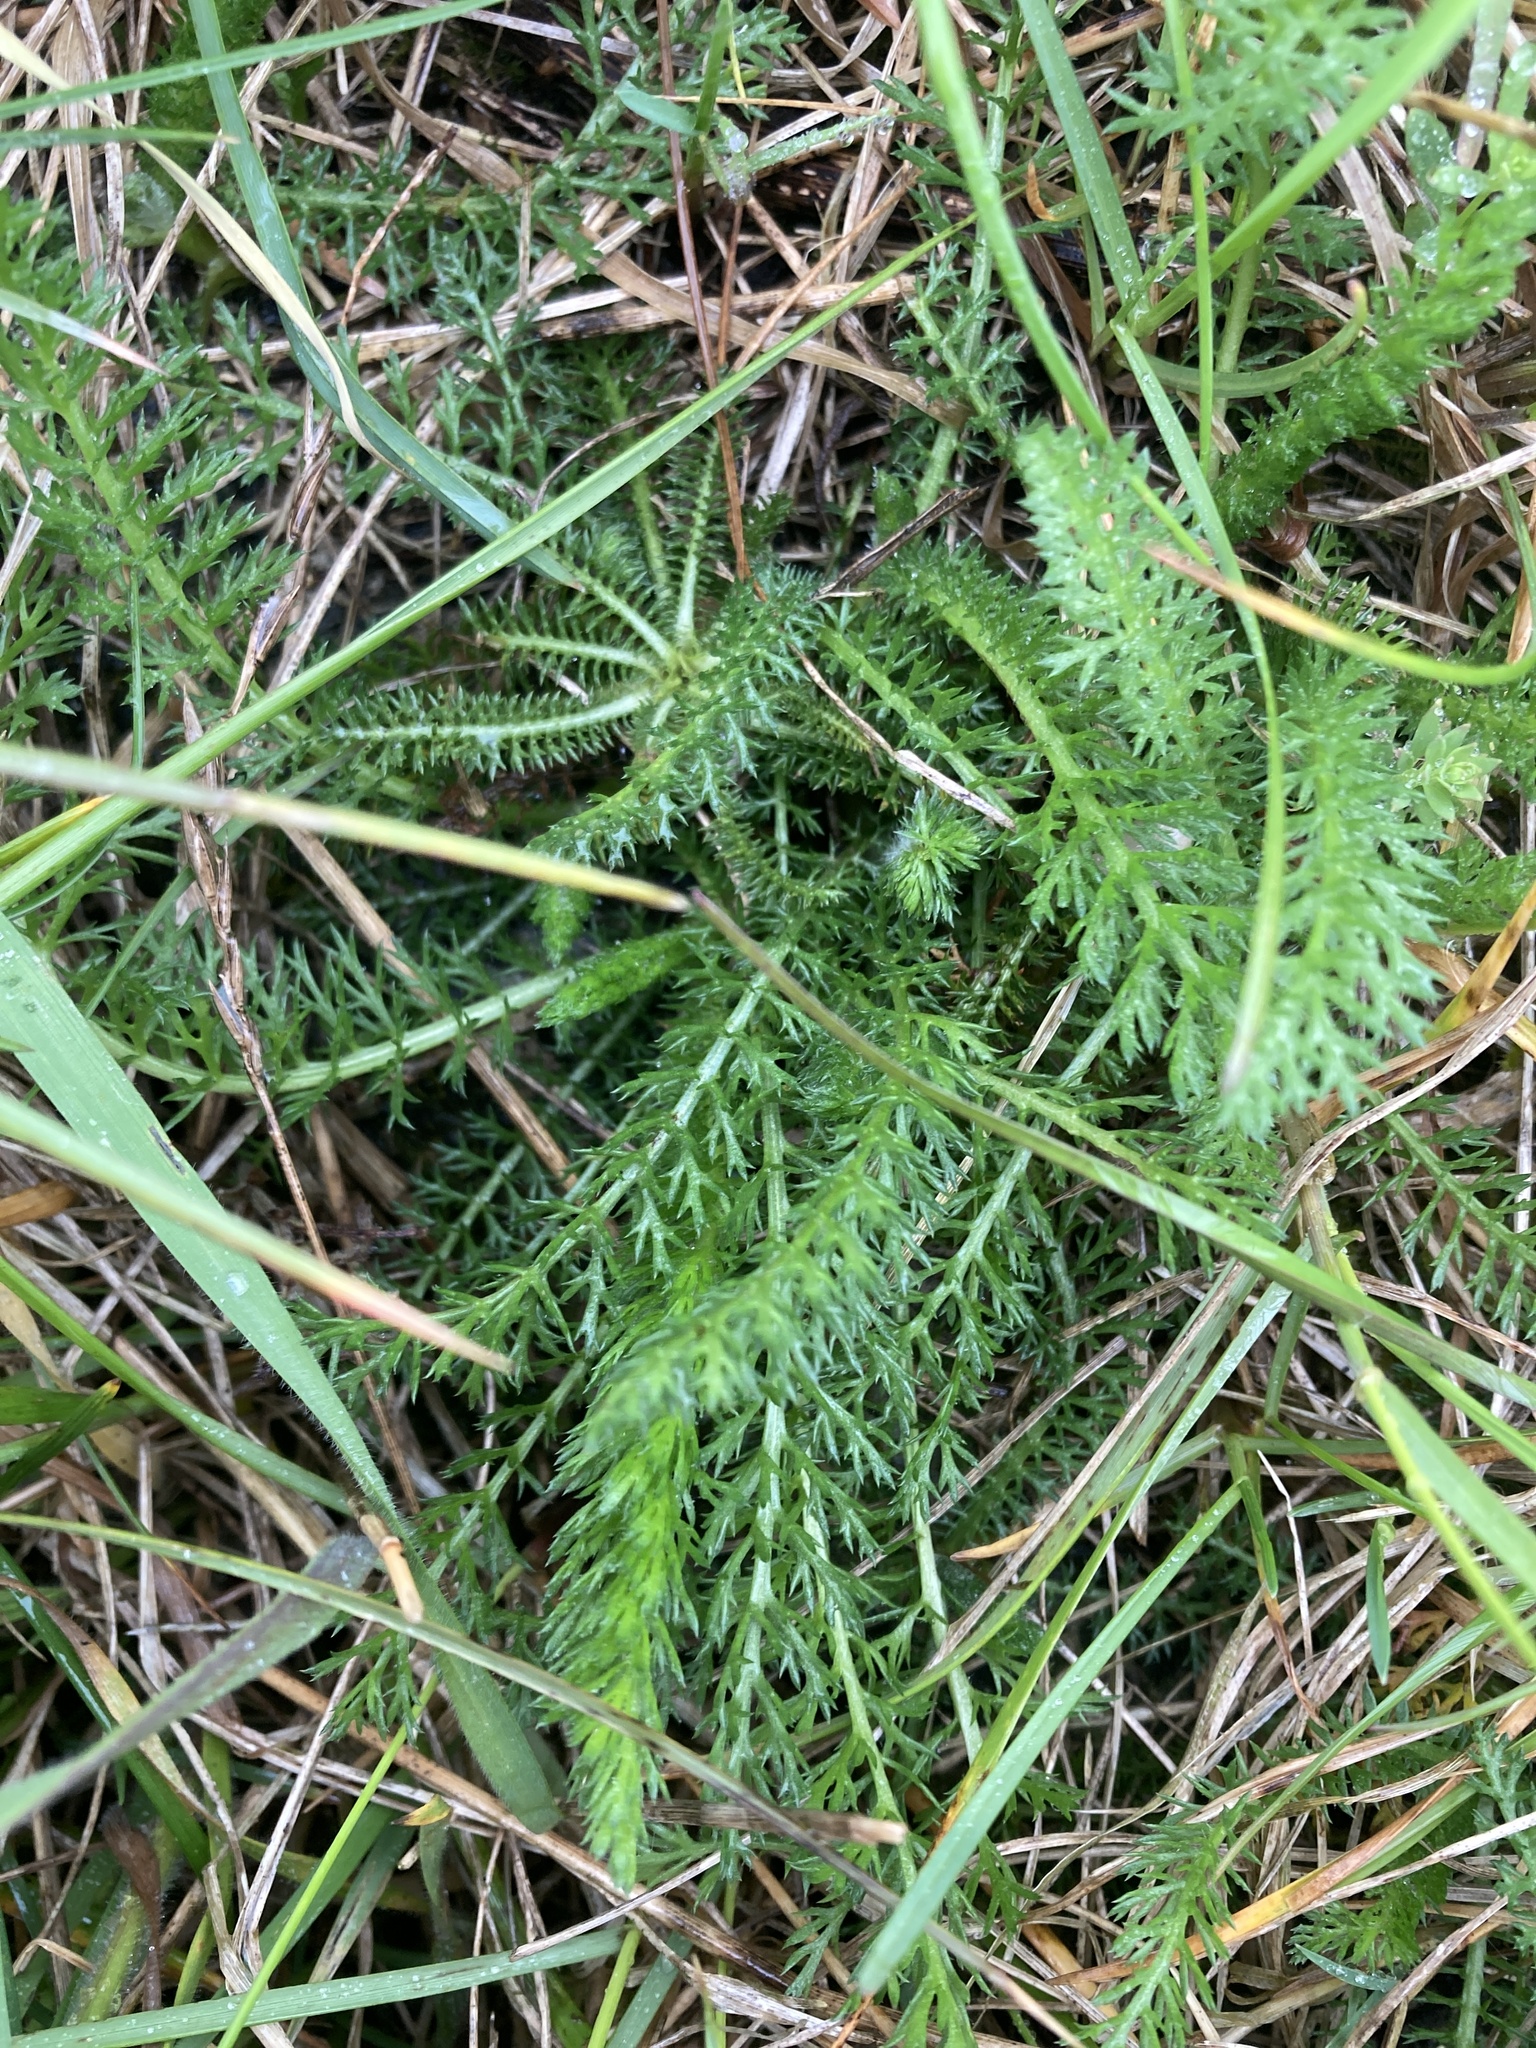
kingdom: Plantae
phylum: Tracheophyta
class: Magnoliopsida
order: Asterales
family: Asteraceae
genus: Achillea
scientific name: Achillea millefolium
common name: Yarrow
